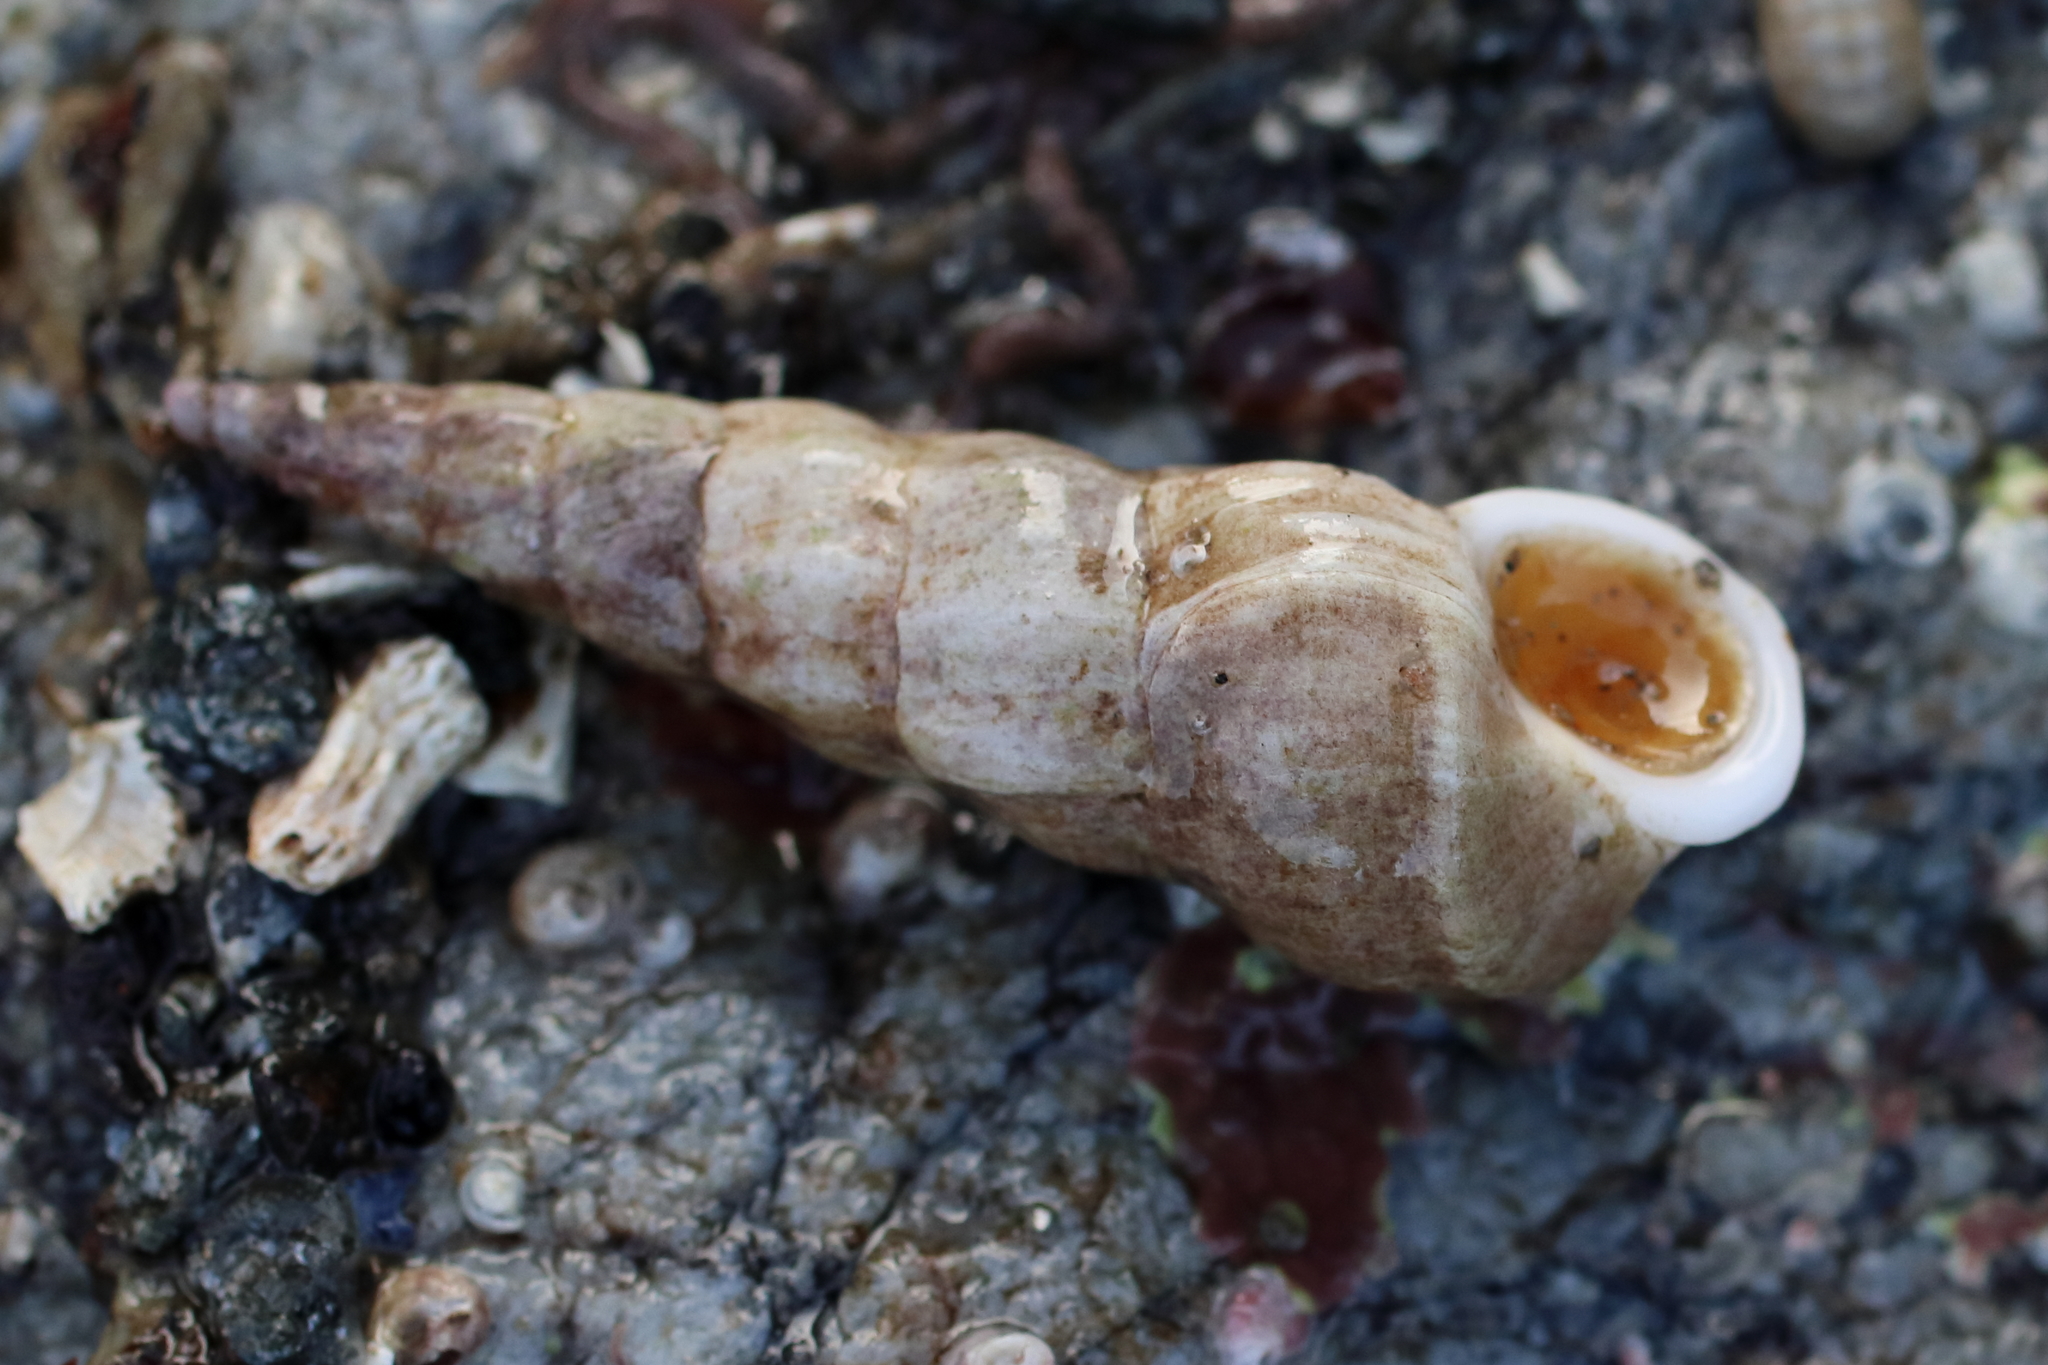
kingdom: Animalia
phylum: Mollusca
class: Gastropoda
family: Epitoniidae
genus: Opalia
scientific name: Opalia wroblewskyi
